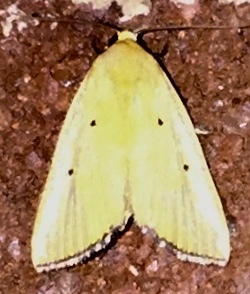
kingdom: Animalia
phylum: Arthropoda
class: Insecta
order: Lepidoptera
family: Noctuidae
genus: Marimatha
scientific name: Marimatha nigrofimbria
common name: Black-bordered lemon moth
